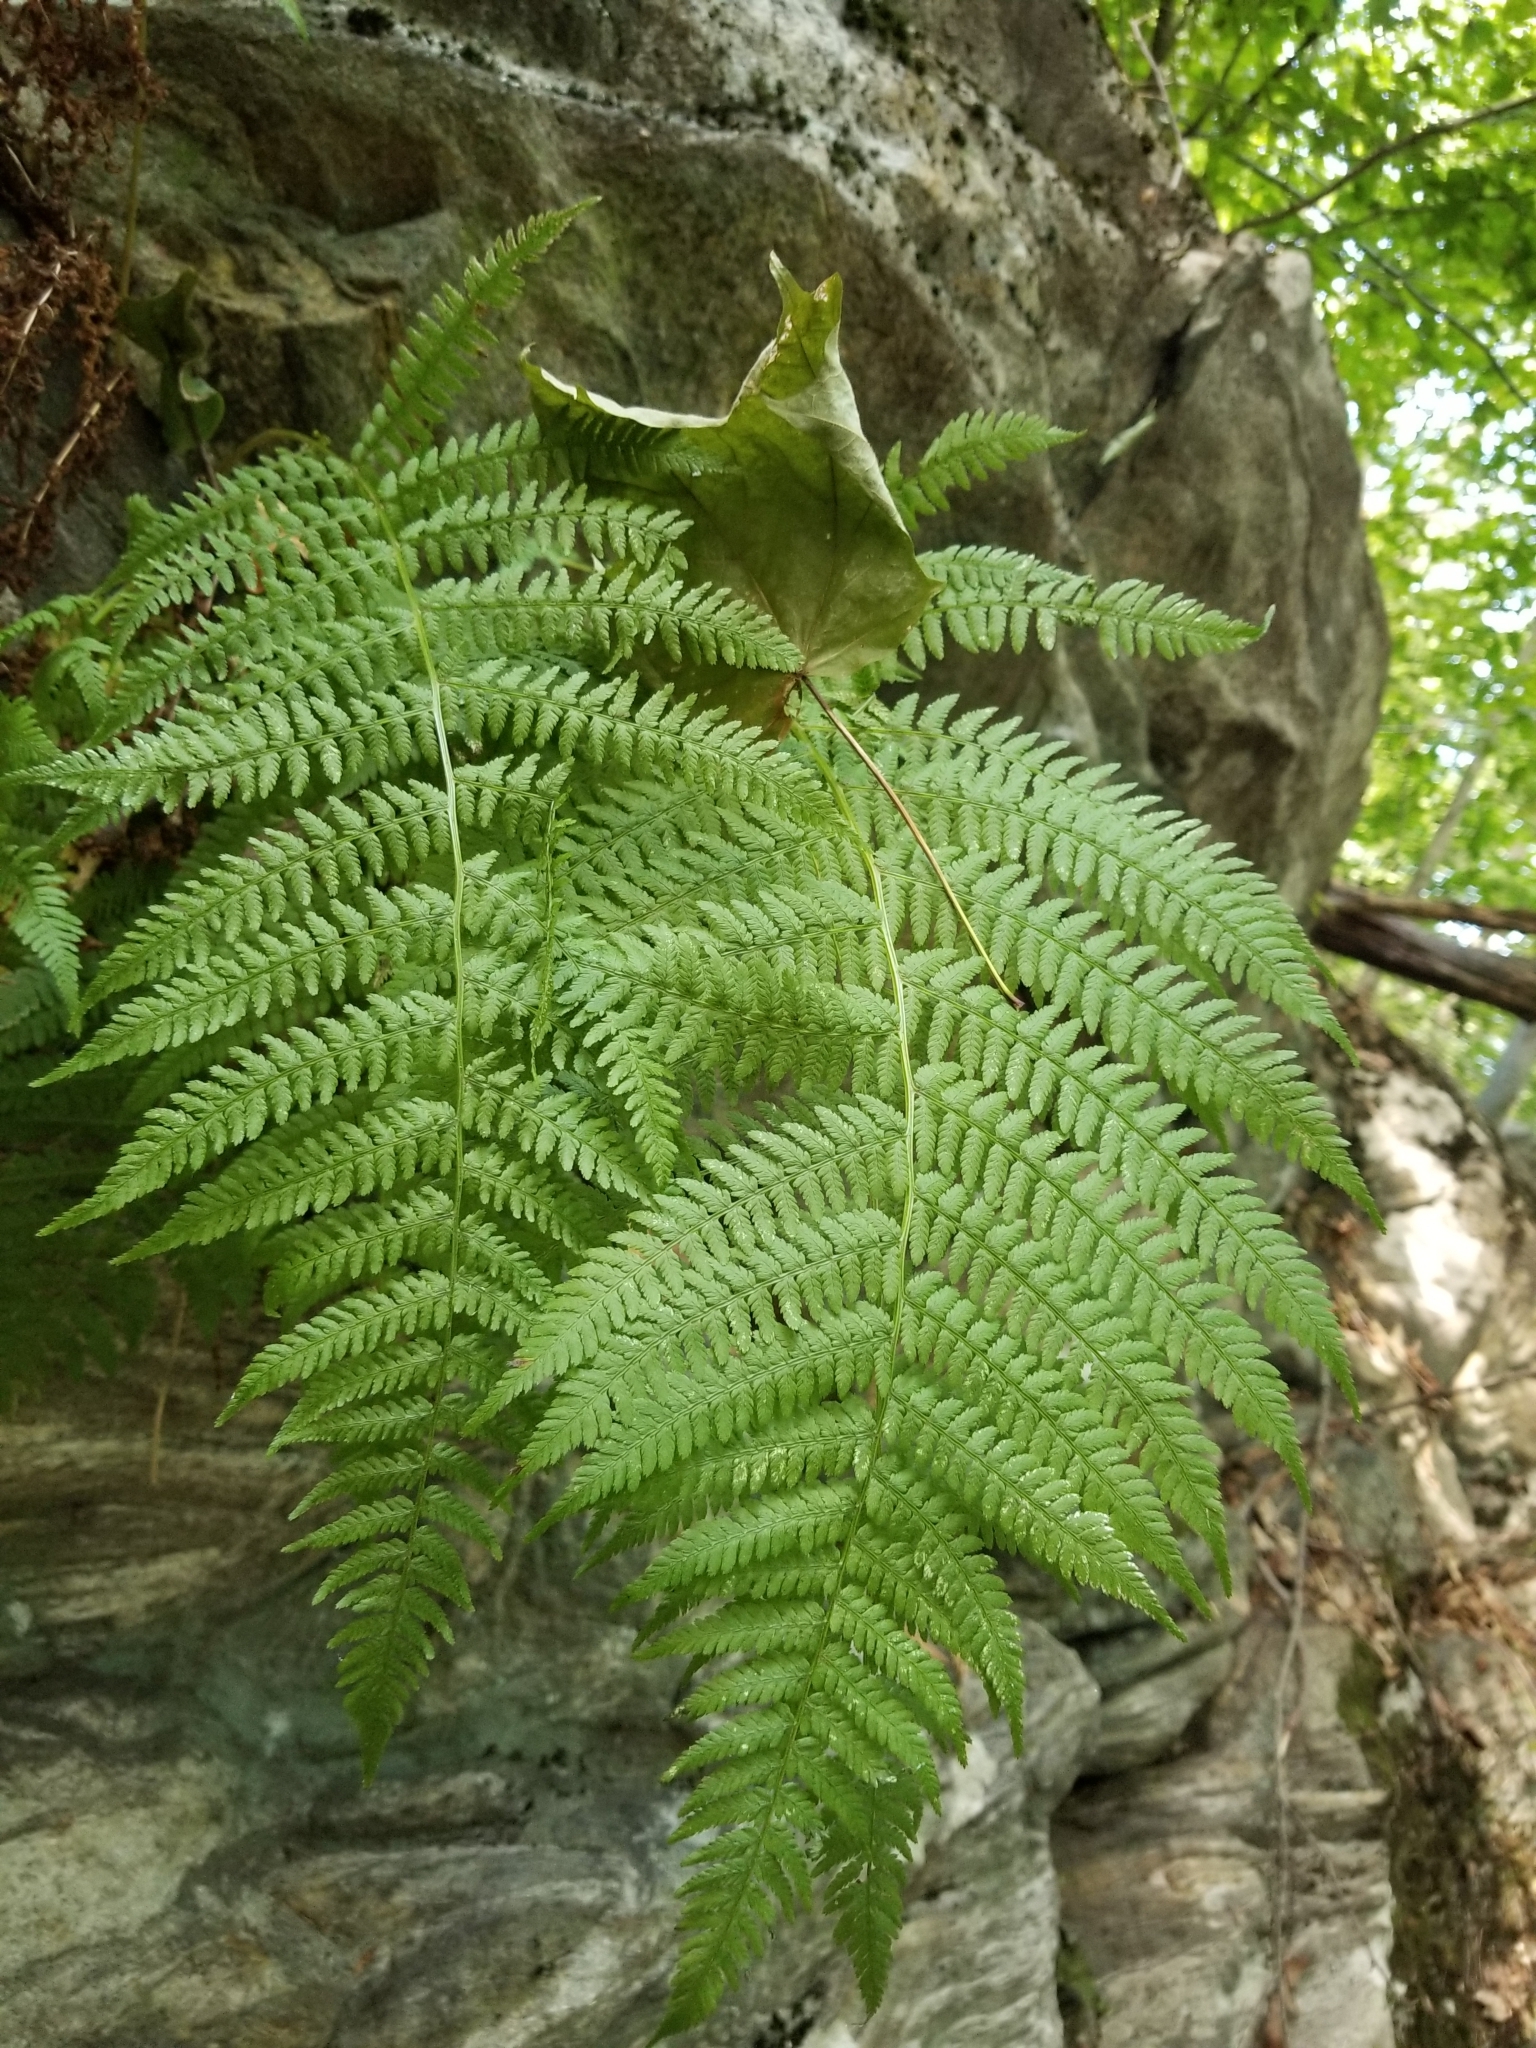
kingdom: Plantae
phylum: Tracheophyta
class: Polypodiopsida
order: Polypodiales
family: Athyriaceae
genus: Athyrium
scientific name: Athyrium angustum
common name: Northern lady fern
